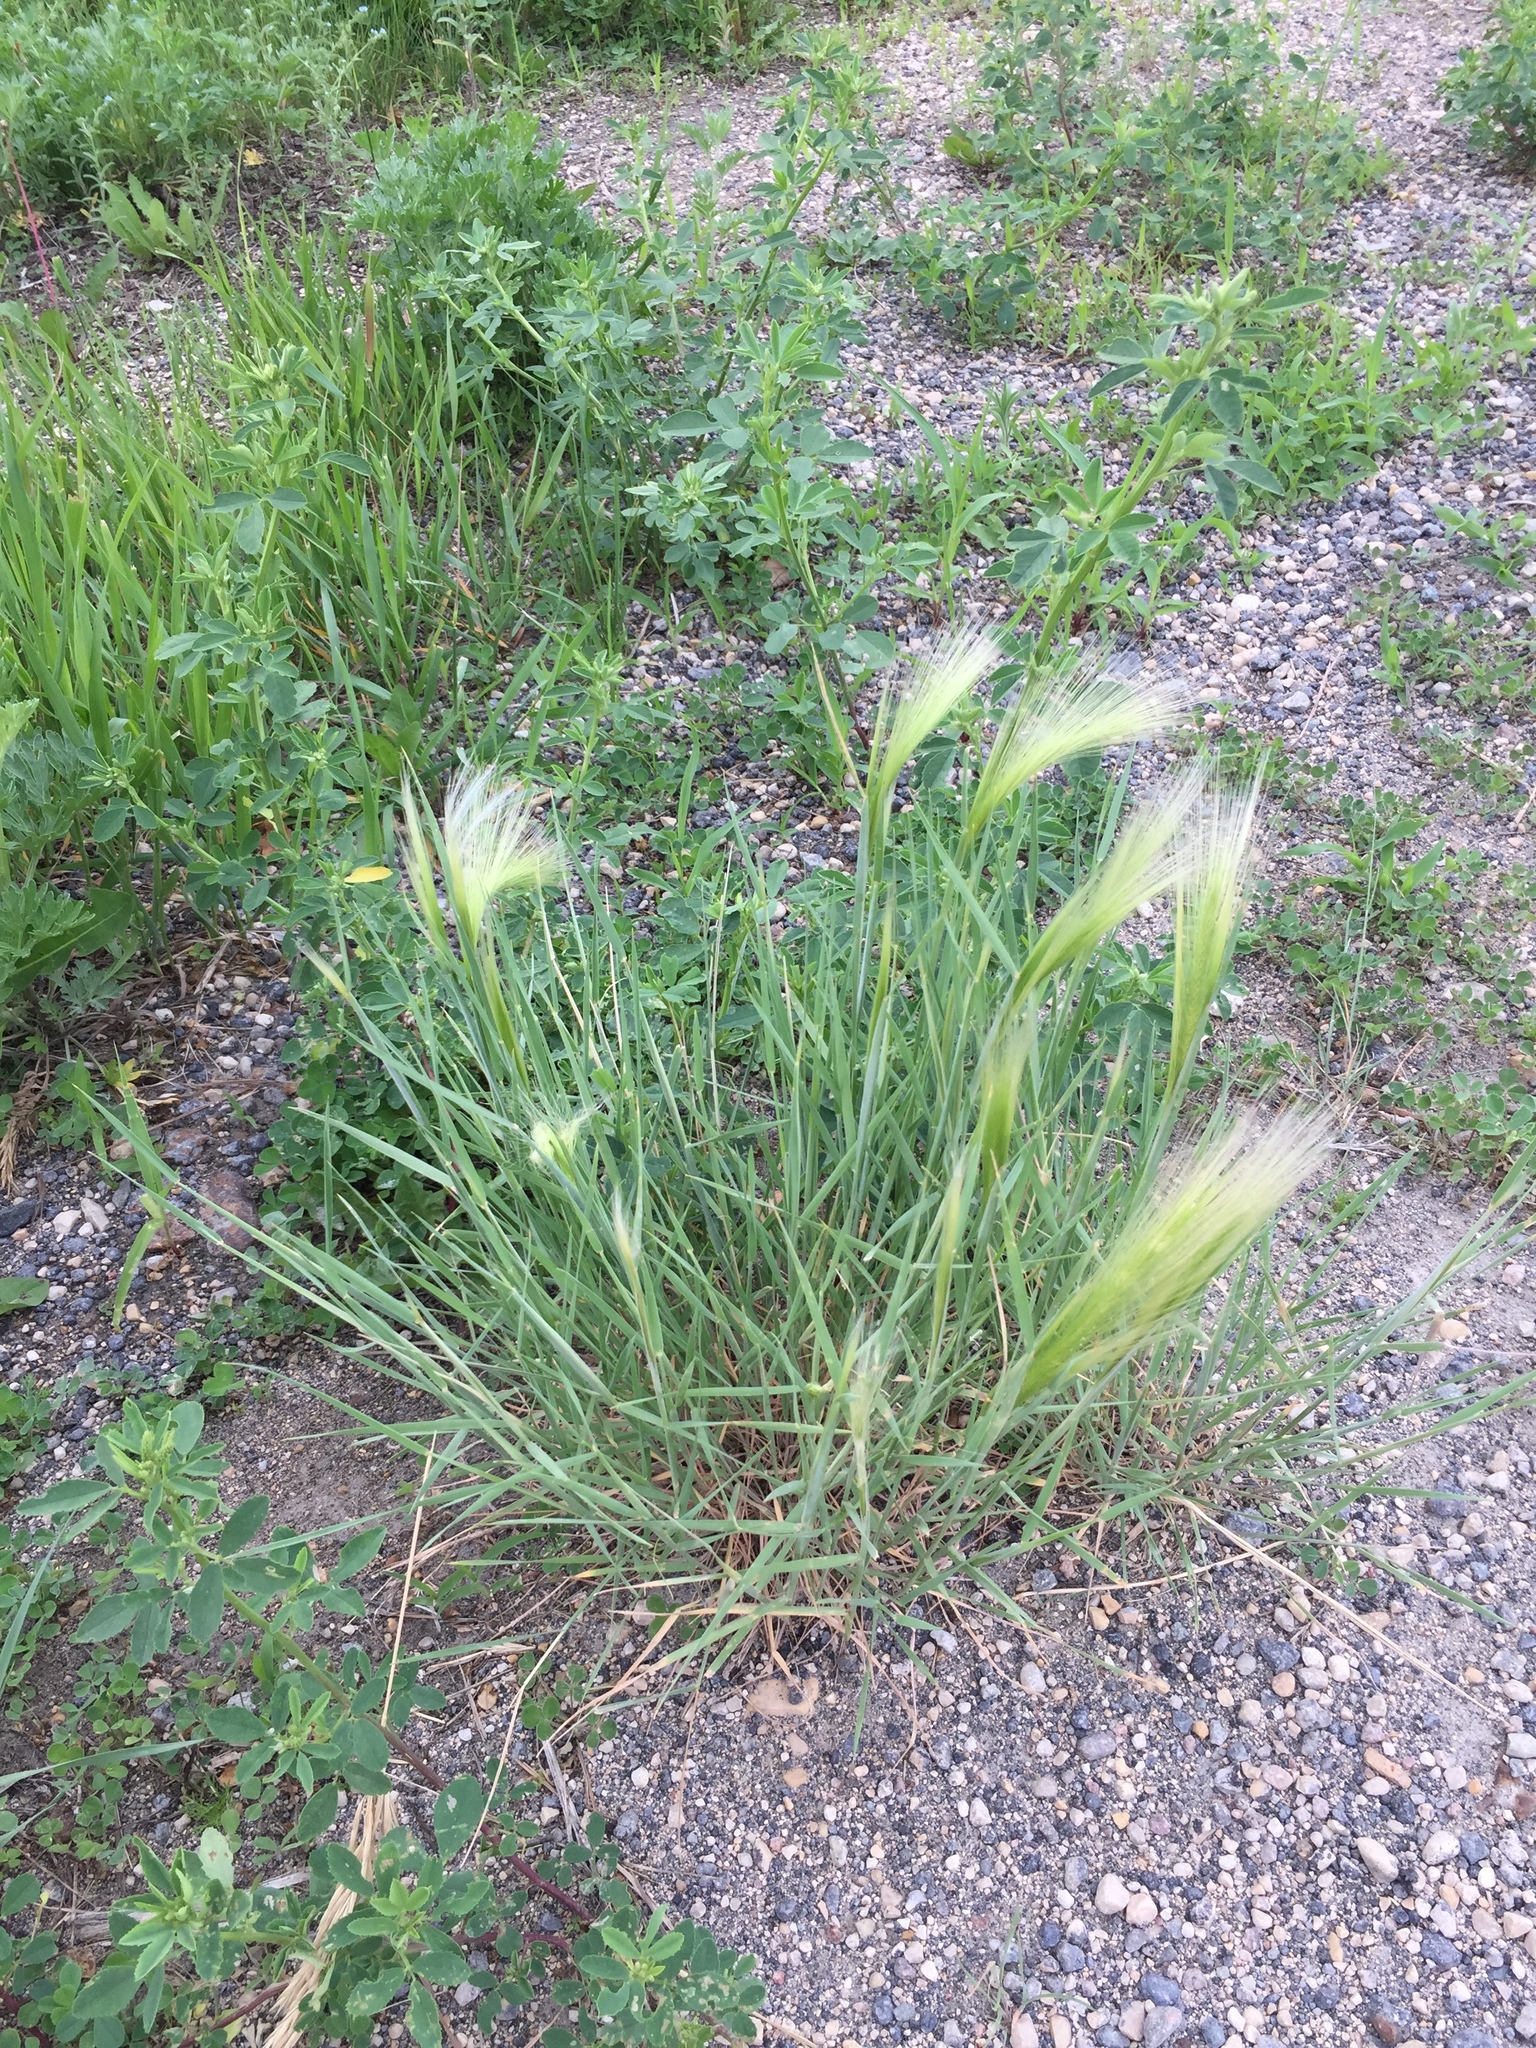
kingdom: Plantae
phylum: Tracheophyta
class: Liliopsida
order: Poales
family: Poaceae
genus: Hordeum
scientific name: Hordeum jubatum
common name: Foxtail barley
